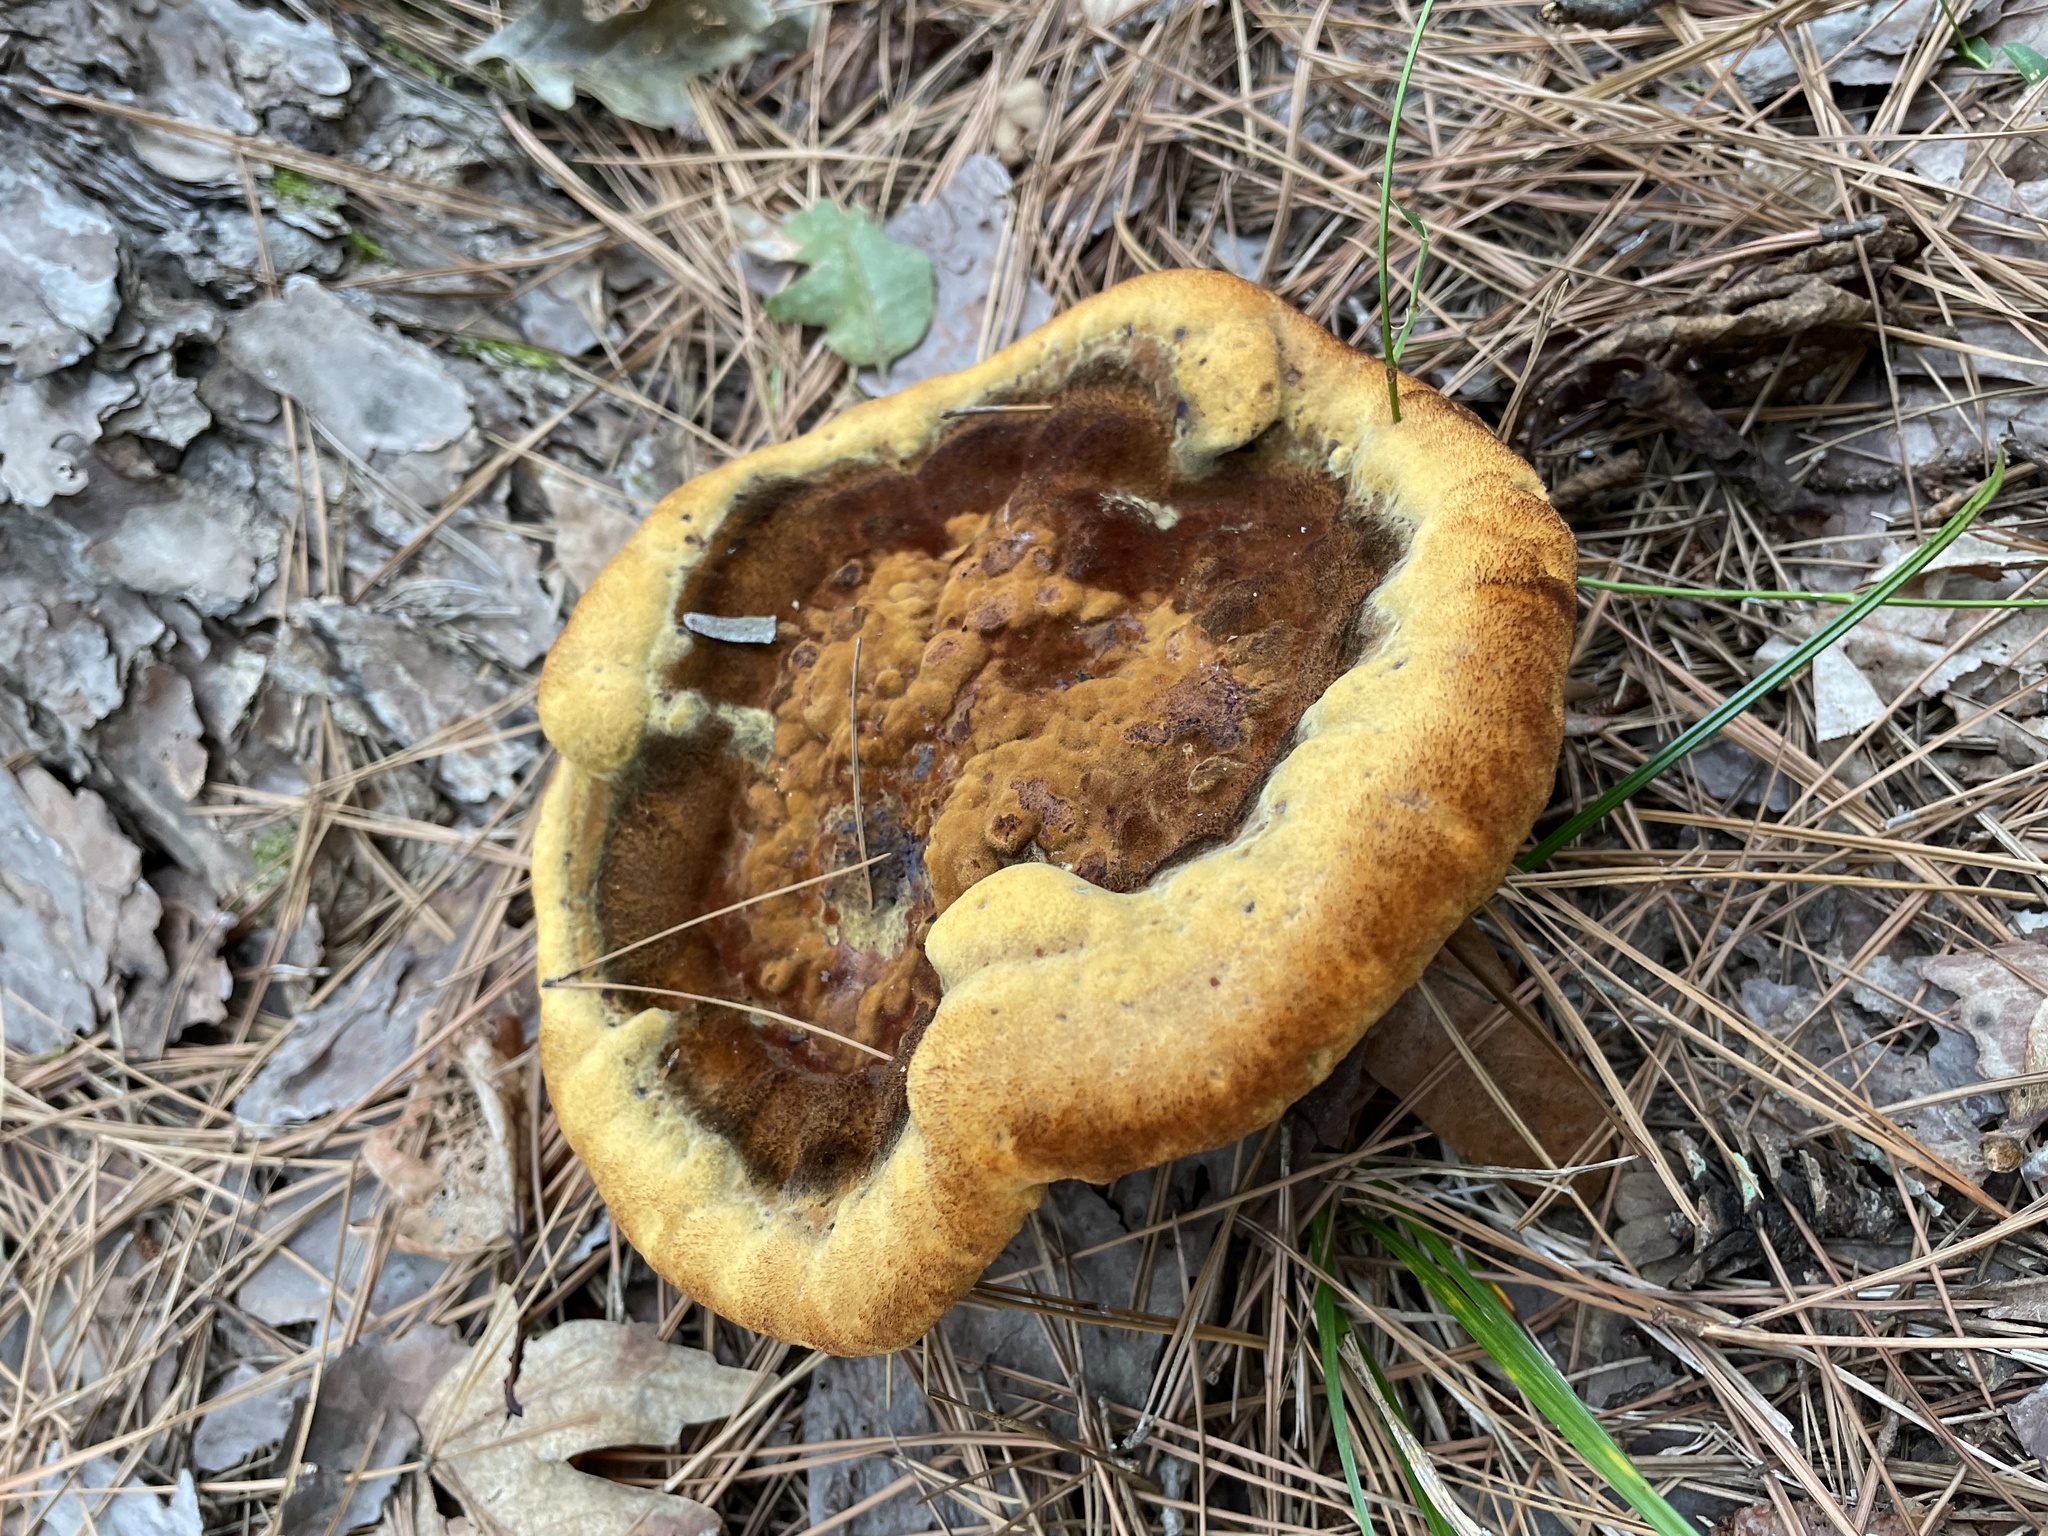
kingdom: Fungi
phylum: Basidiomycota
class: Agaricomycetes
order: Polyporales
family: Laetiporaceae
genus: Phaeolus
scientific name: Phaeolus schweinitzii
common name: Dyer's mazegill
